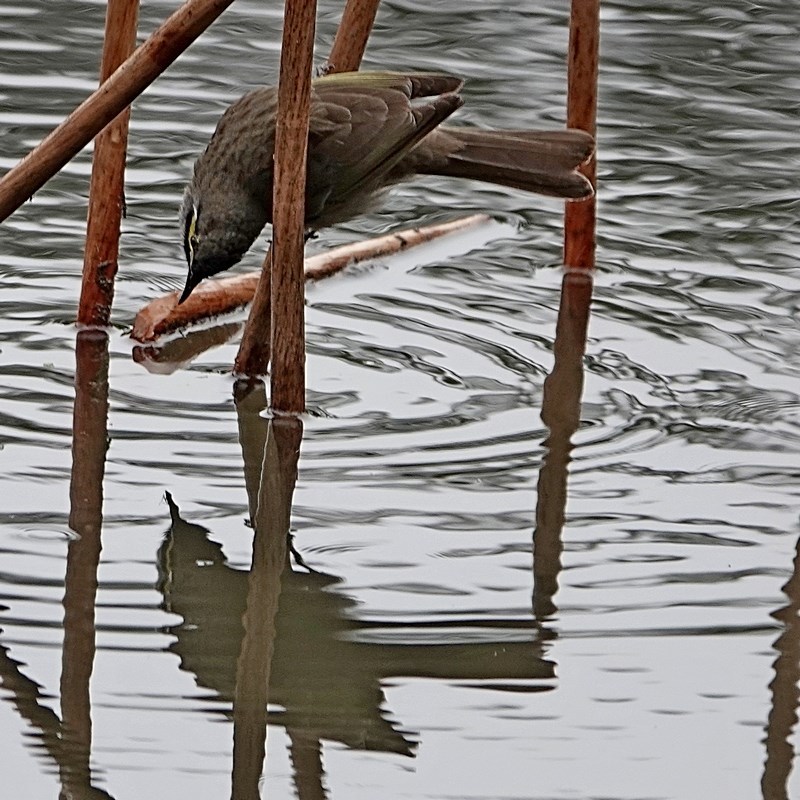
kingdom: Animalia
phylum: Chordata
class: Aves
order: Passeriformes
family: Meliphagidae
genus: Caligavis
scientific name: Caligavis chrysops
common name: Yellow-faced honeyeater
